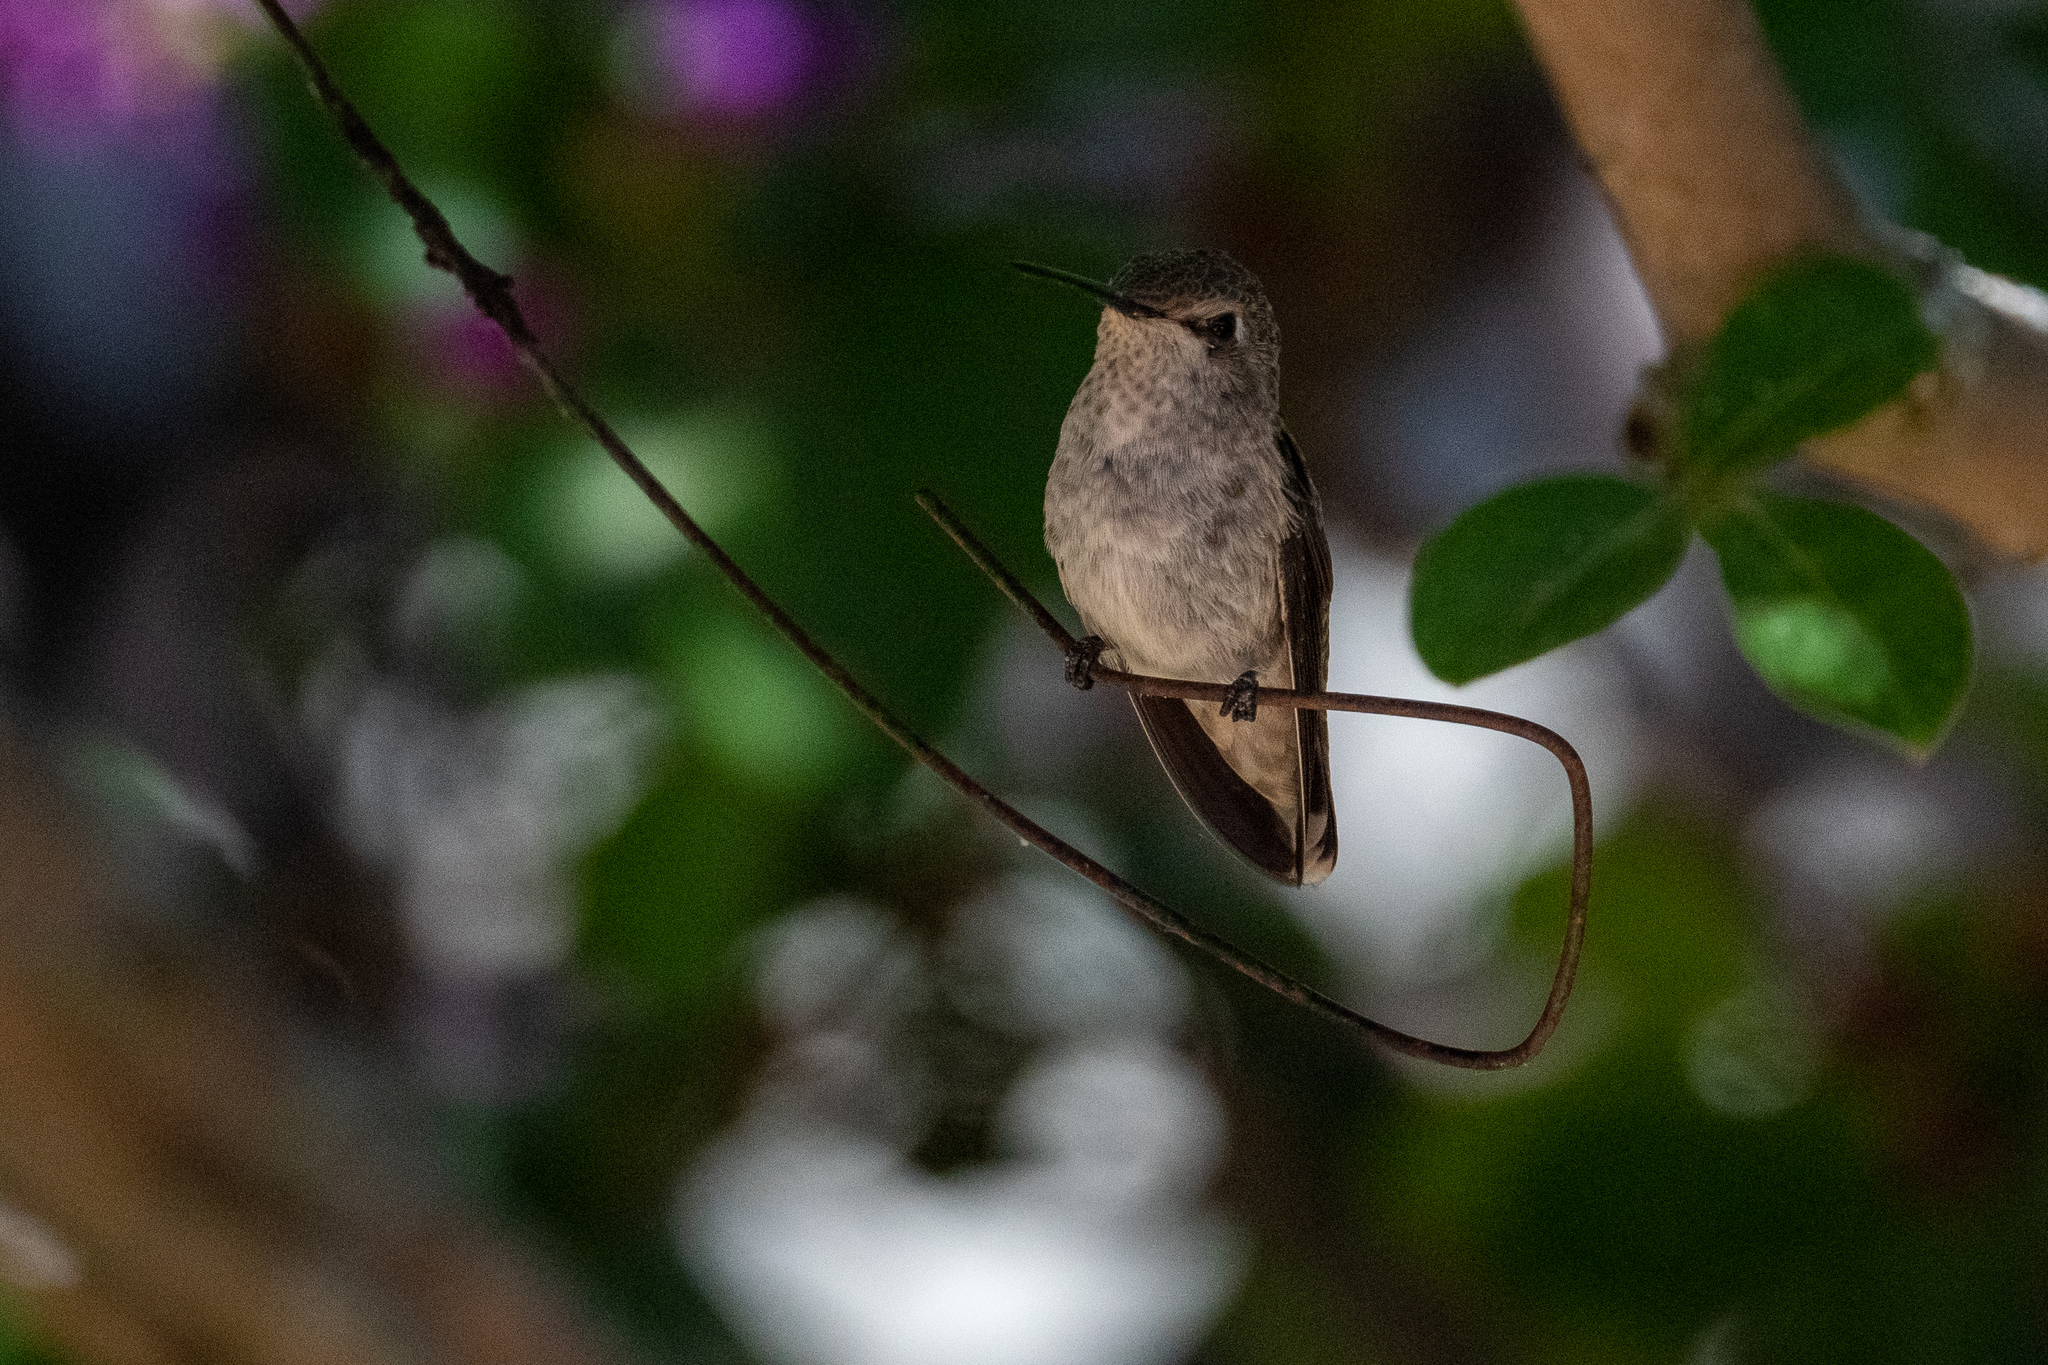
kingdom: Animalia
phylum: Chordata
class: Aves
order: Apodiformes
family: Trochilidae
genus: Calypte
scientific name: Calypte anna
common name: Anna's hummingbird
